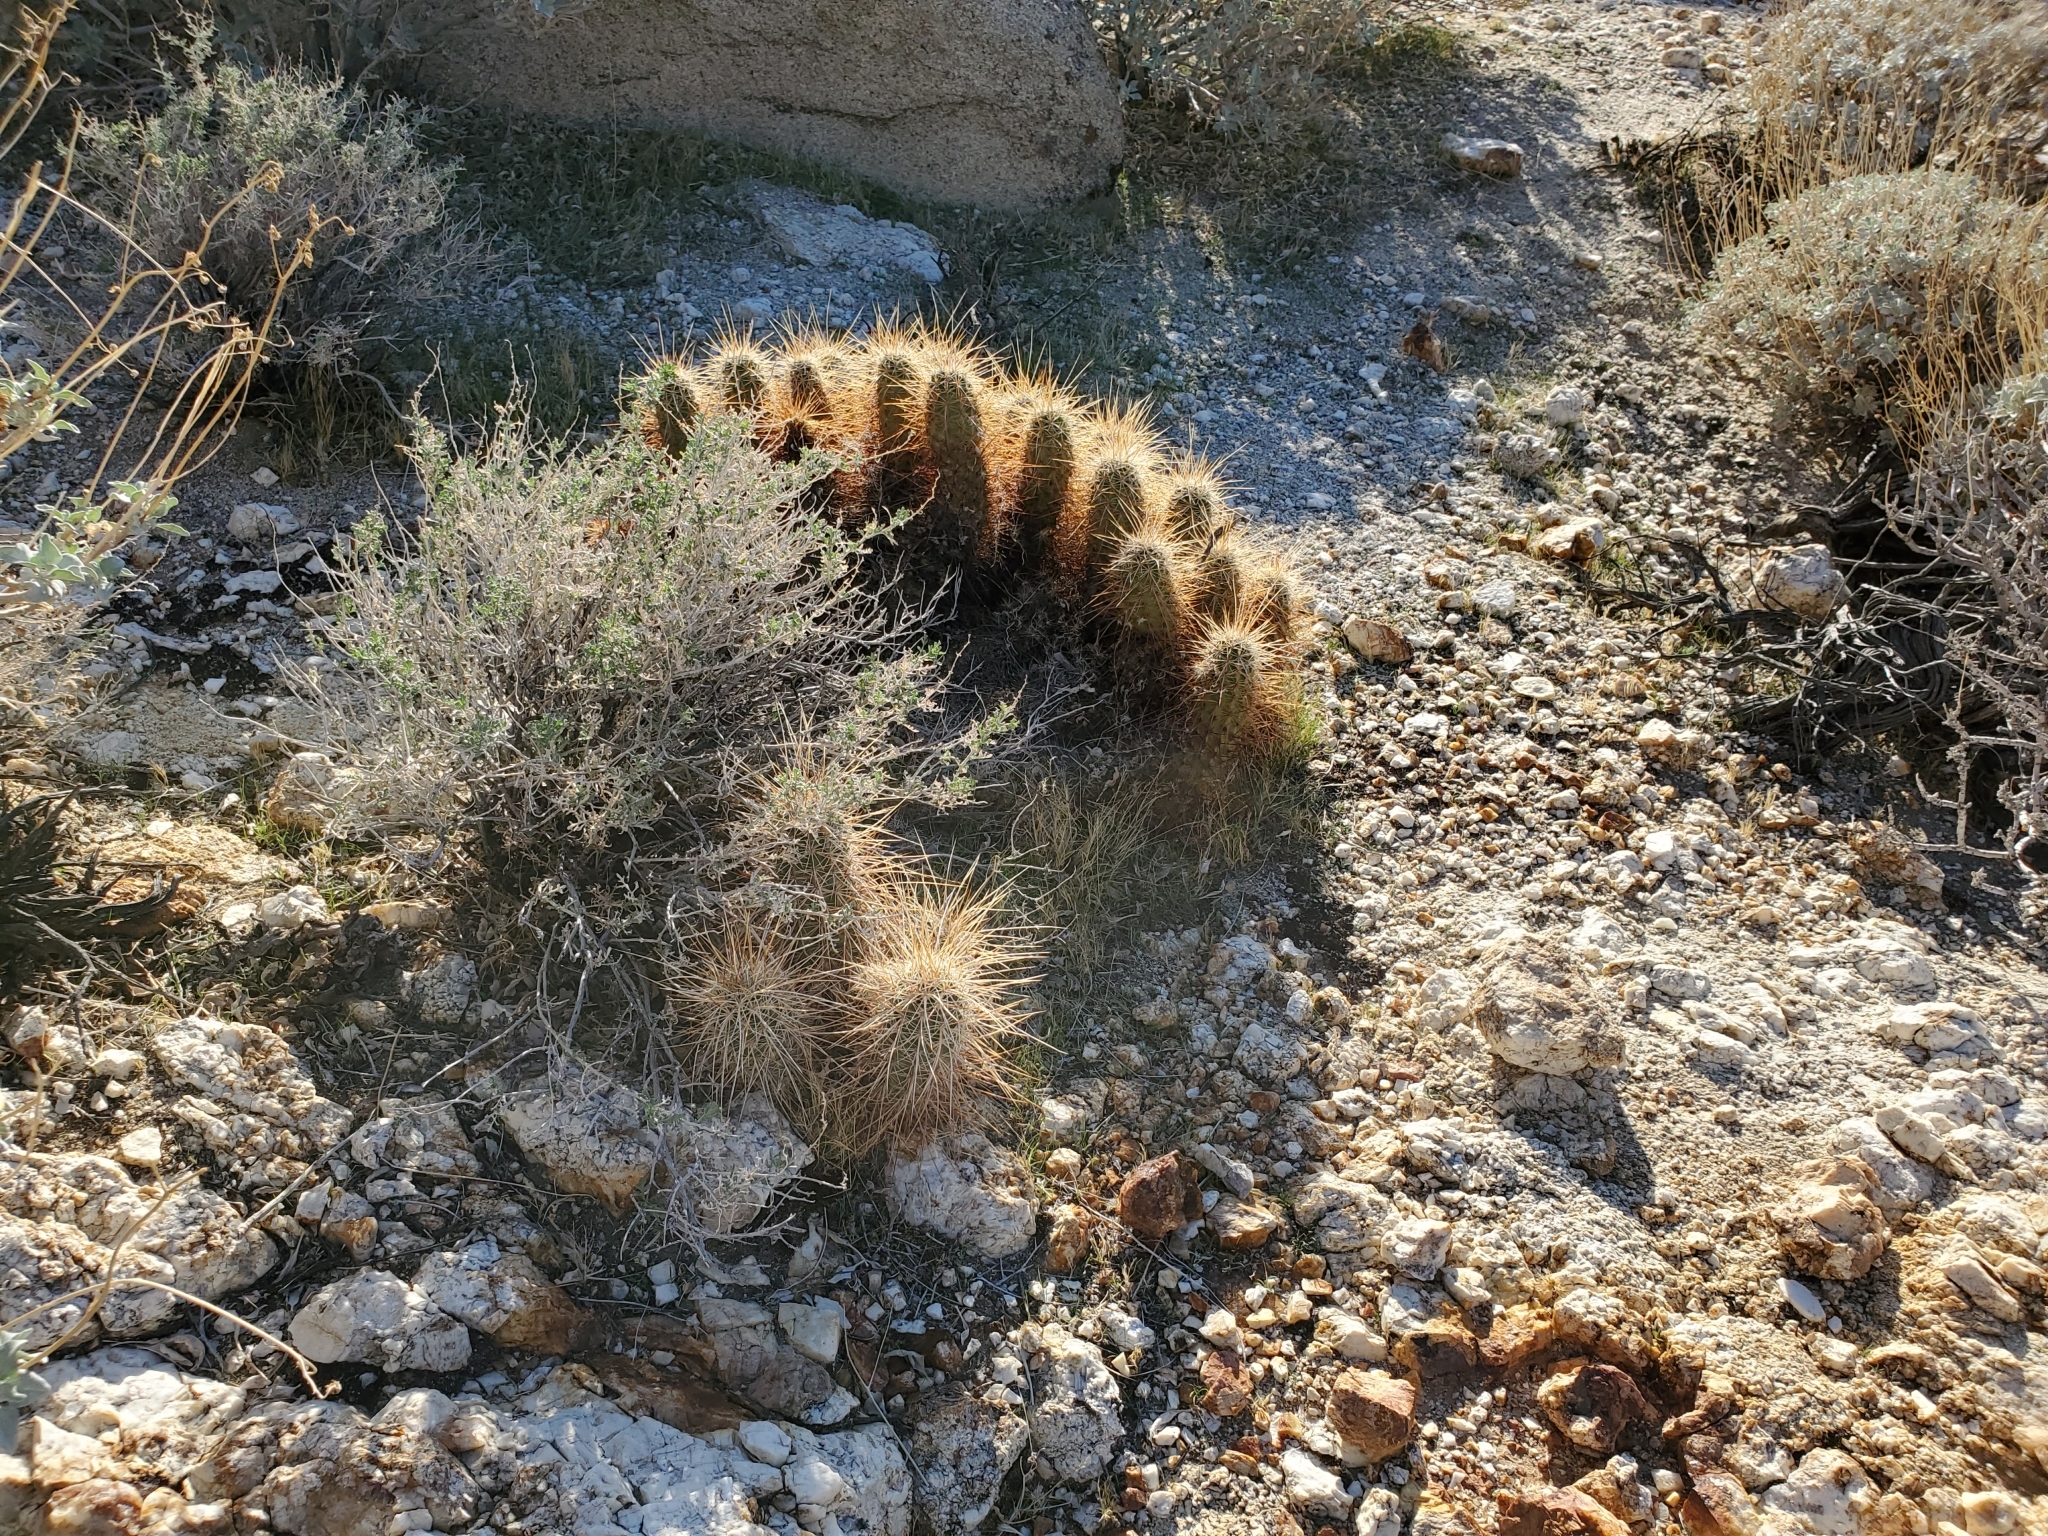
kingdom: Plantae
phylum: Tracheophyta
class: Magnoliopsida
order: Caryophyllales
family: Cactaceae
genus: Echinocereus
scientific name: Echinocereus engelmannii
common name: Engelmann's hedgehog cactus
